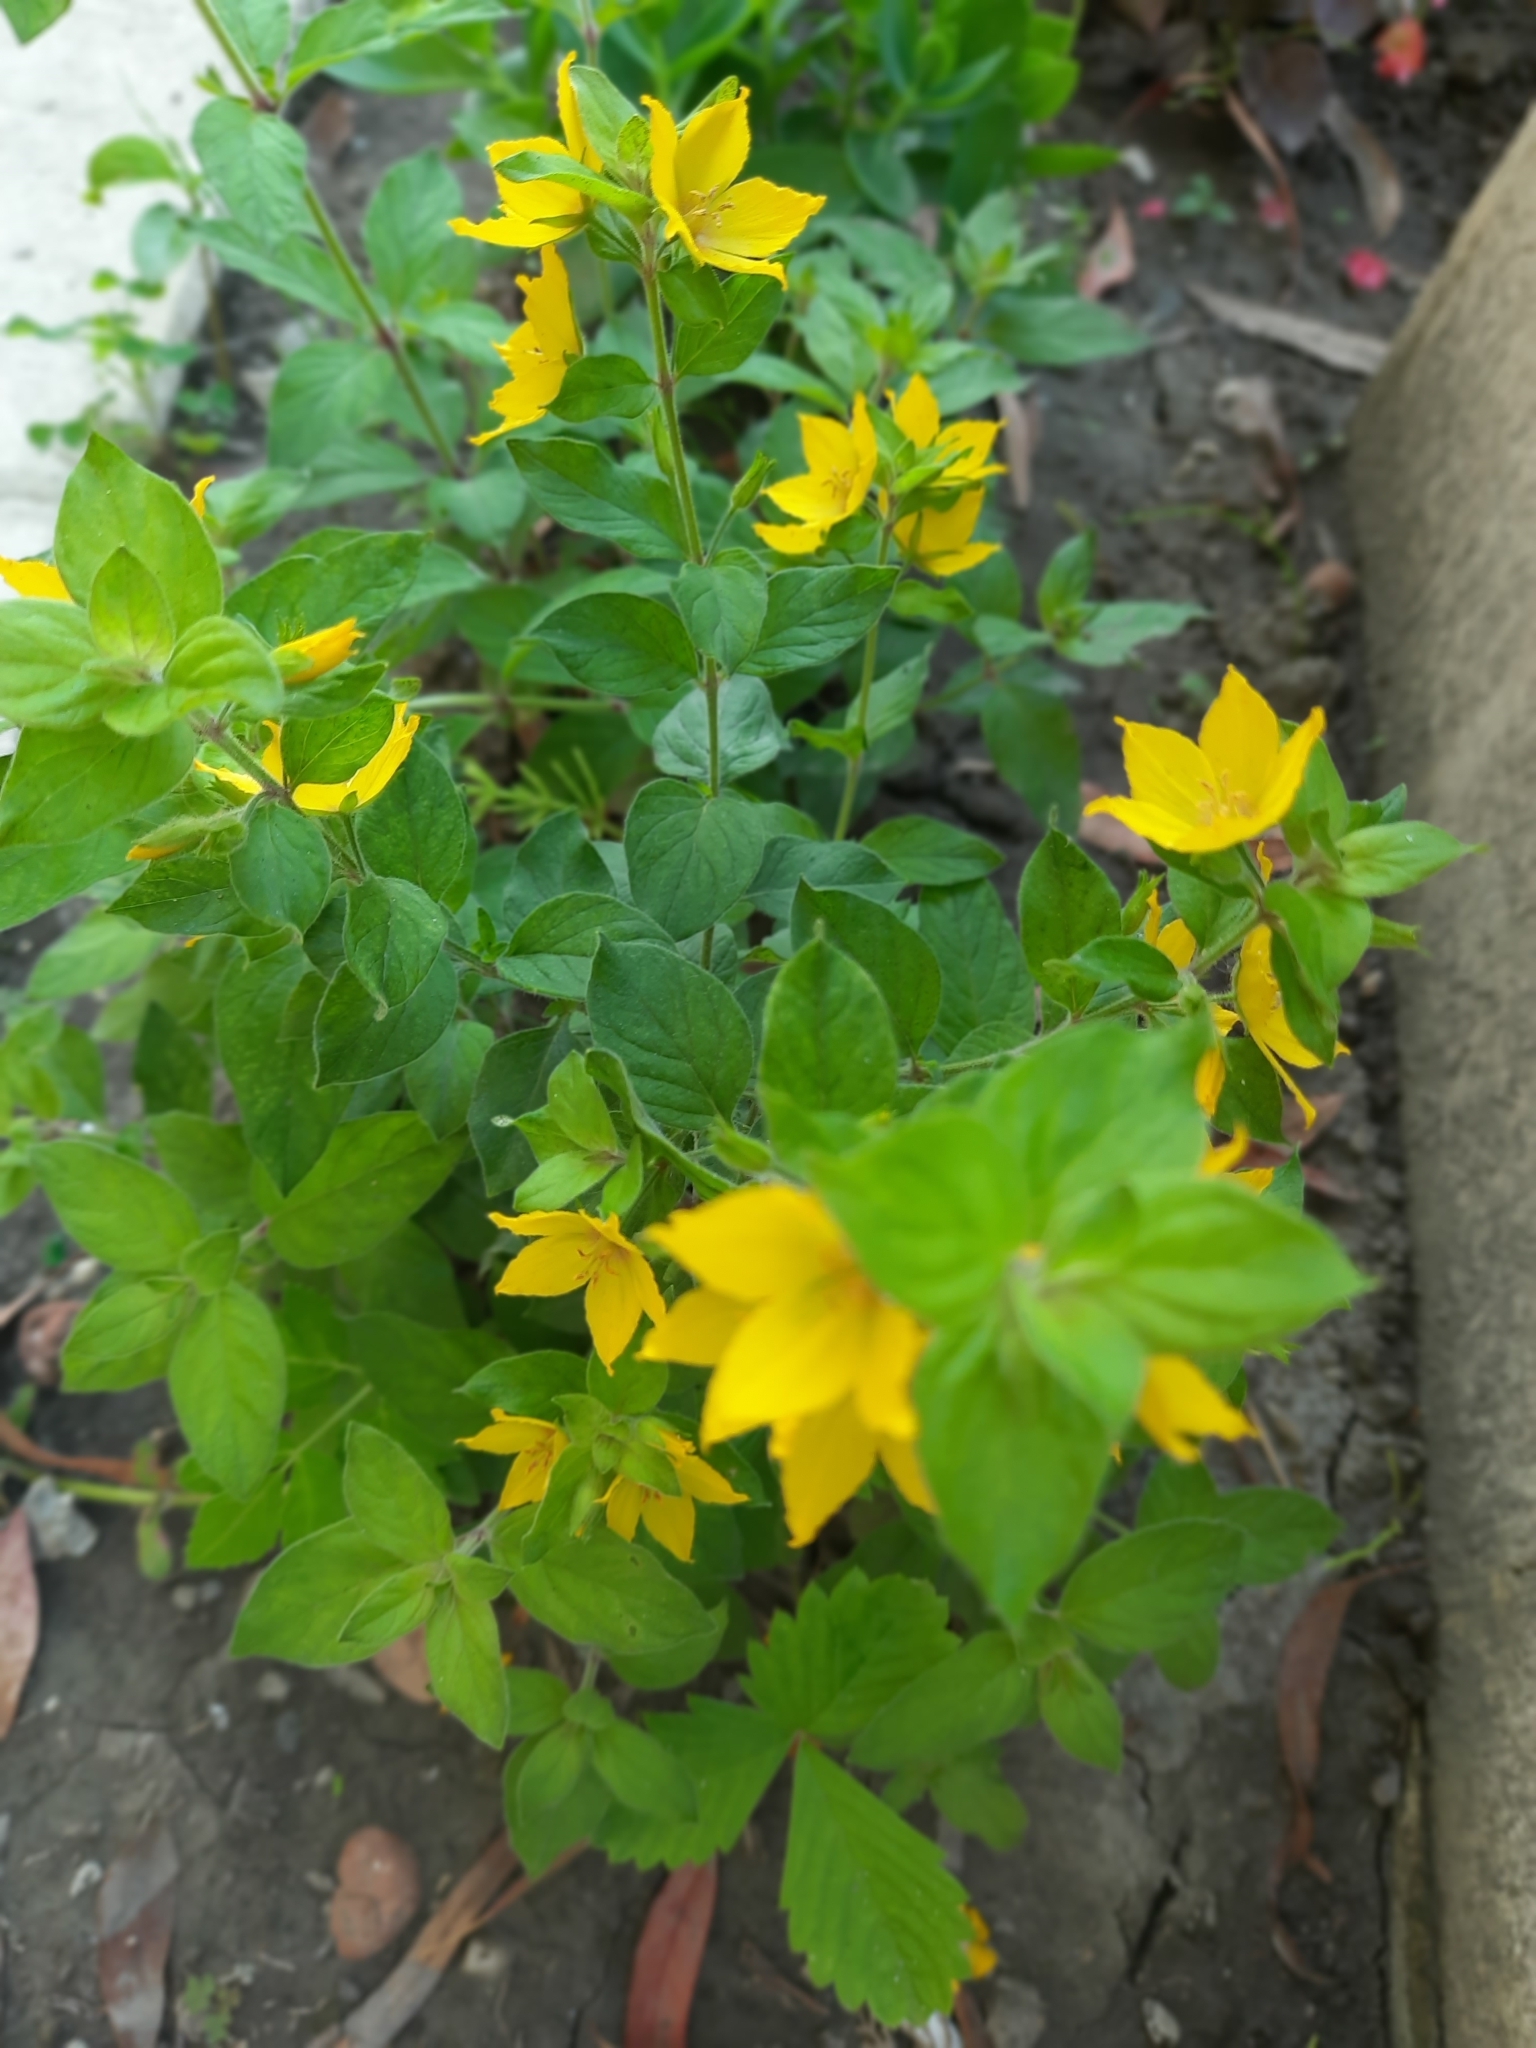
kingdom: Plantae
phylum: Tracheophyta
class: Magnoliopsida
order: Ericales
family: Primulaceae
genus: Lysimachia
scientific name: Lysimachia verticillaris
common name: Yellow loosestrife
